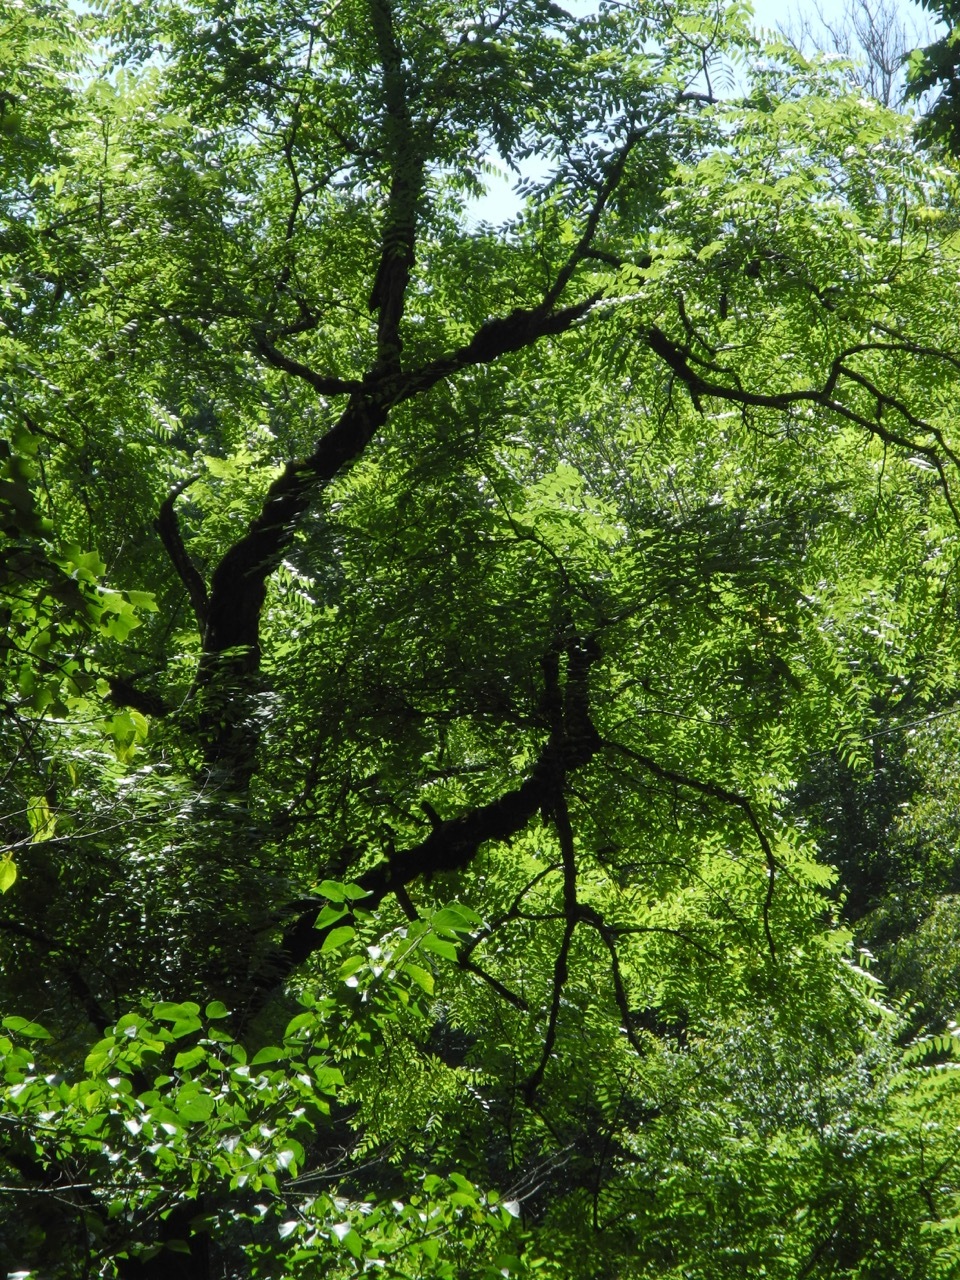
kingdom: Plantae
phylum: Tracheophyta
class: Magnoliopsida
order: Fagales
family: Juglandaceae
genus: Juglans
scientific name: Juglans nigra
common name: Black walnut
